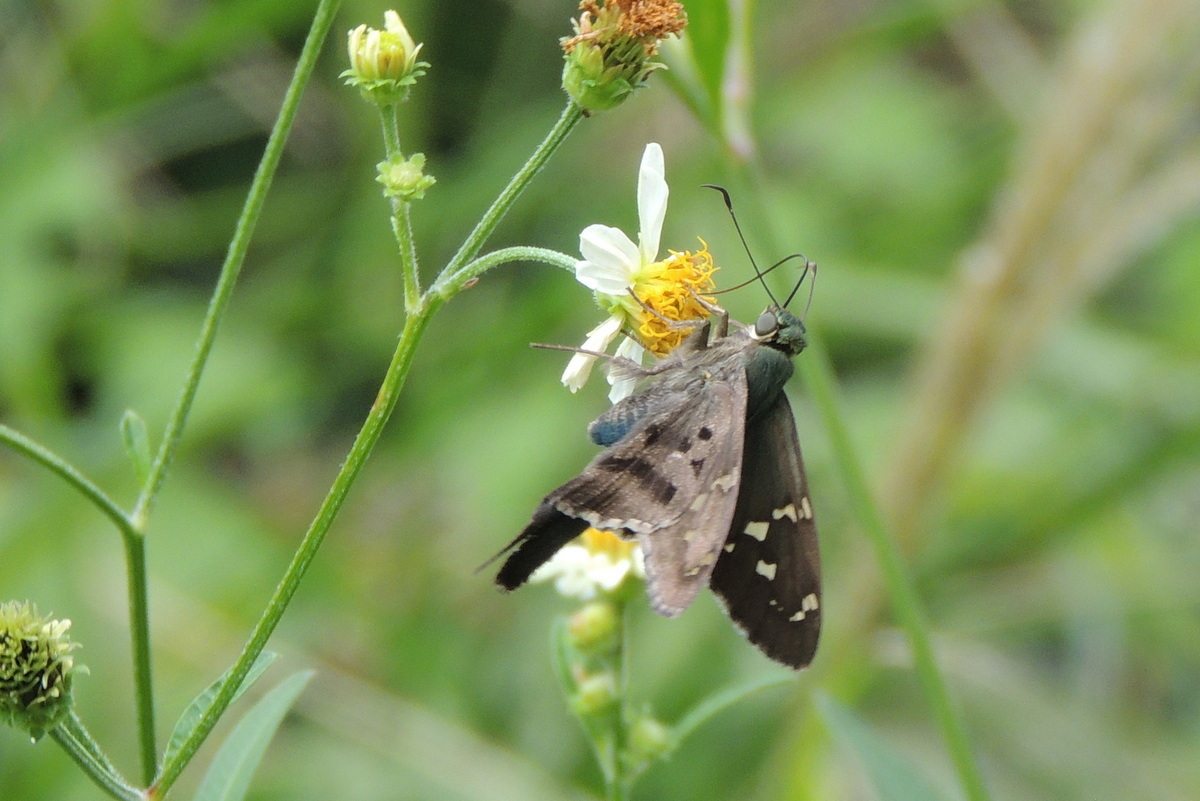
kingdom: Animalia
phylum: Arthropoda
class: Insecta
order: Lepidoptera
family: Hesperiidae
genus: Urbanus
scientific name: Urbanus proteus
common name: Long-tailed skipper
